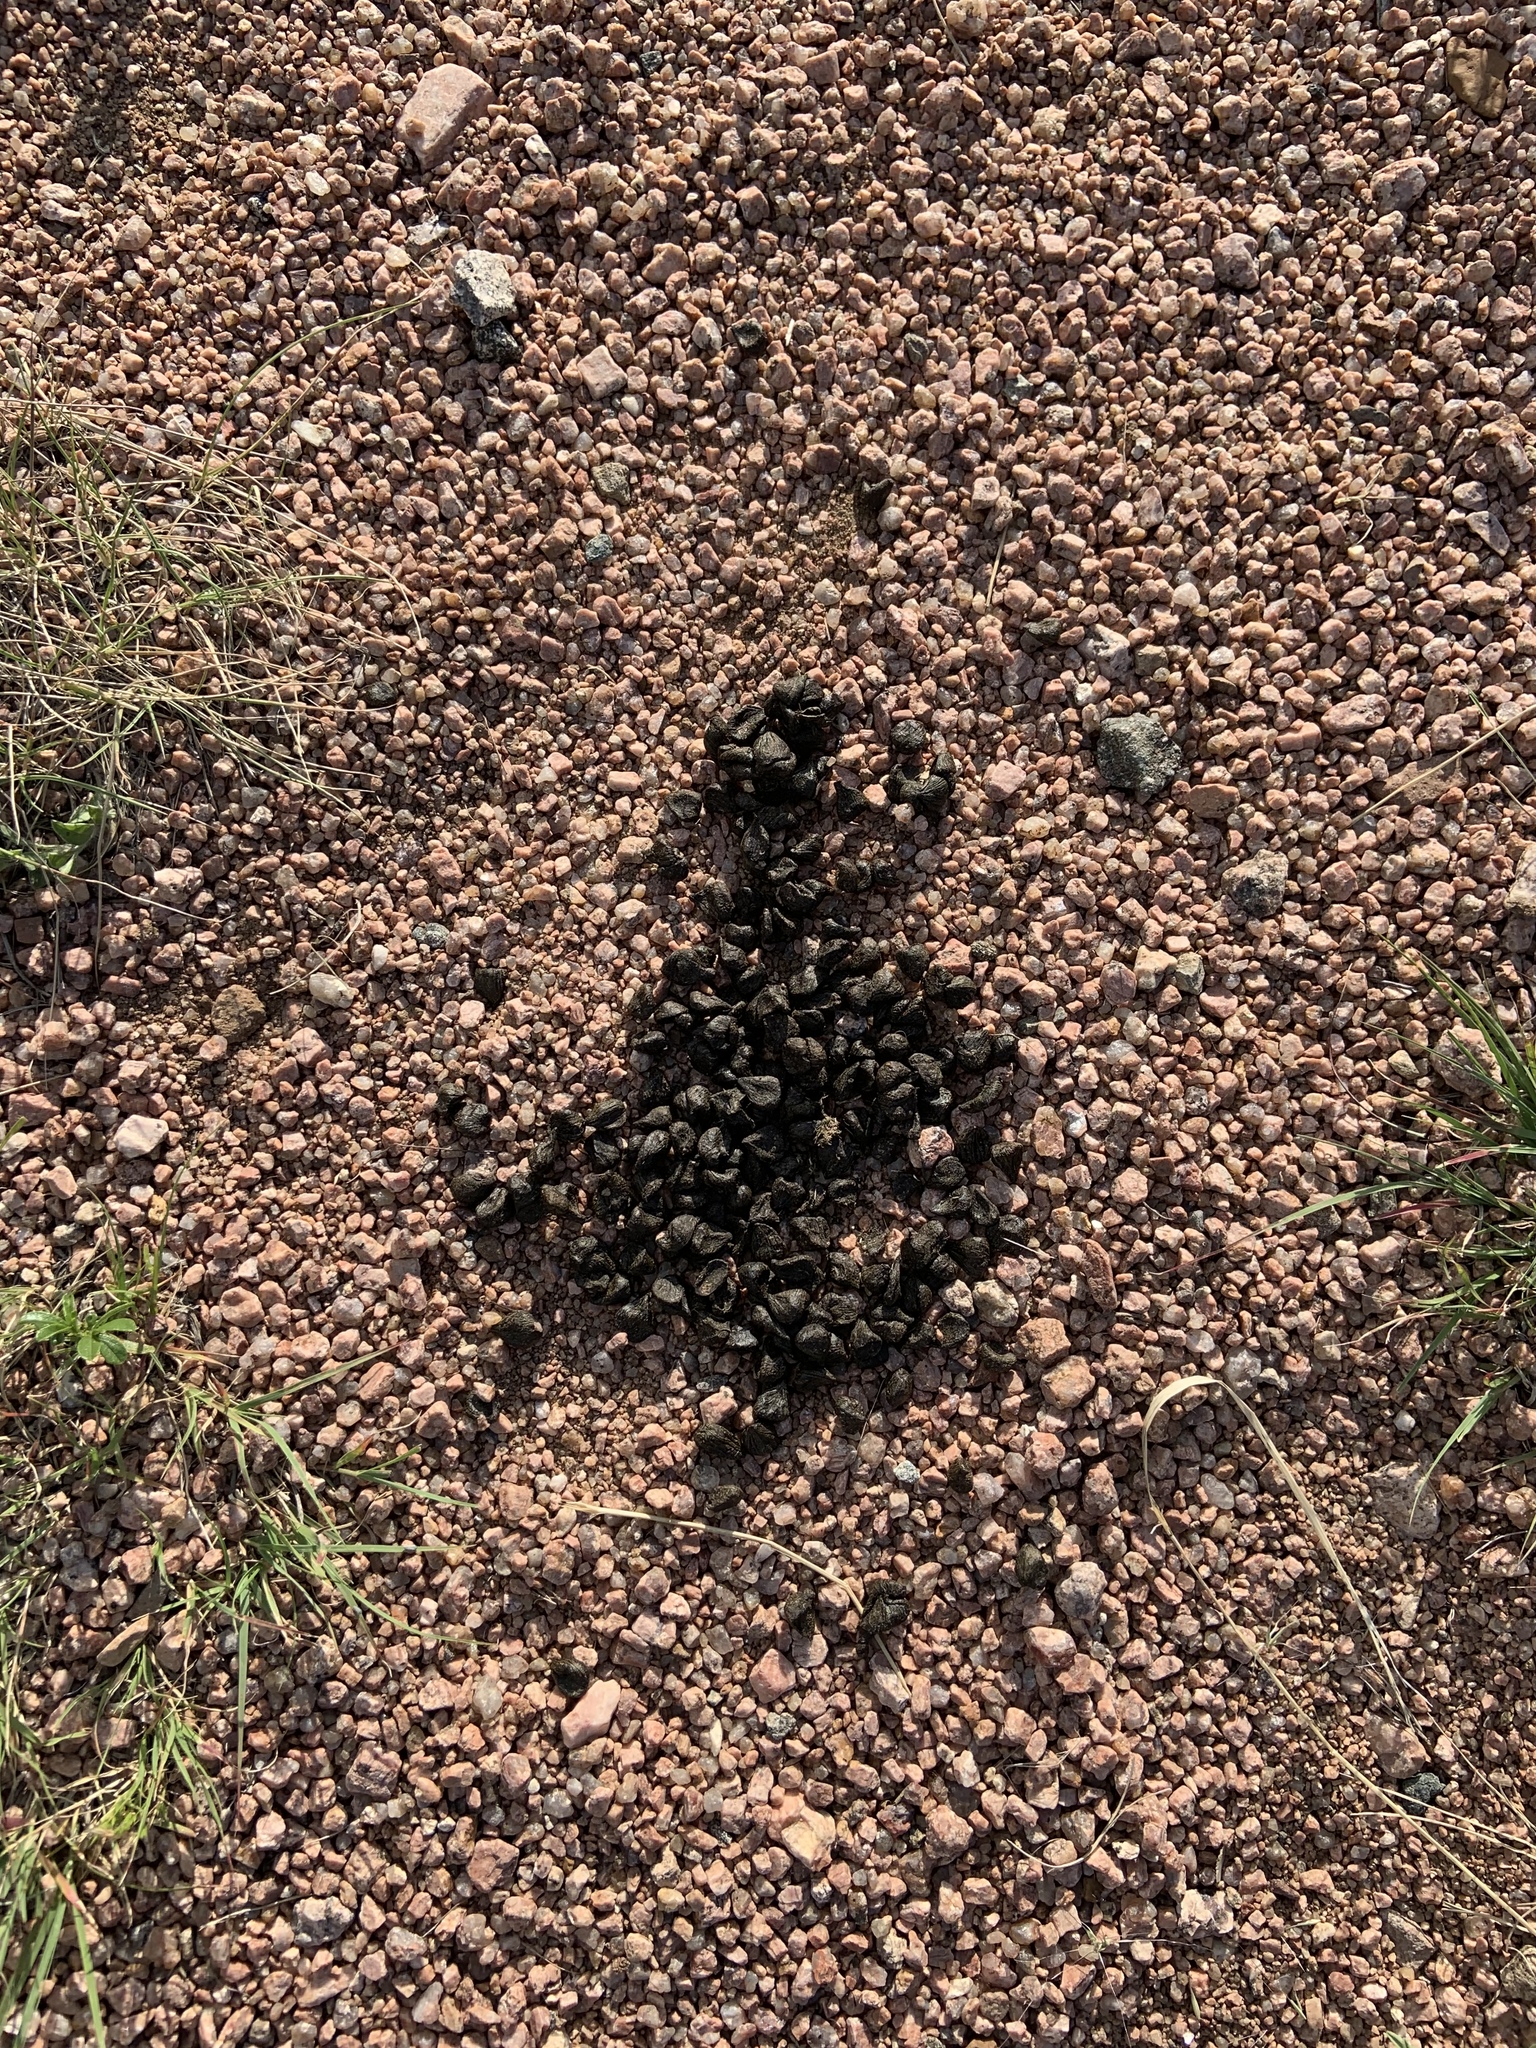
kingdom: Animalia
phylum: Chordata
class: Mammalia
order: Artiodactyla
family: Antilocapridae
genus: Antilocapra
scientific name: Antilocapra americana
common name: Pronghorn
